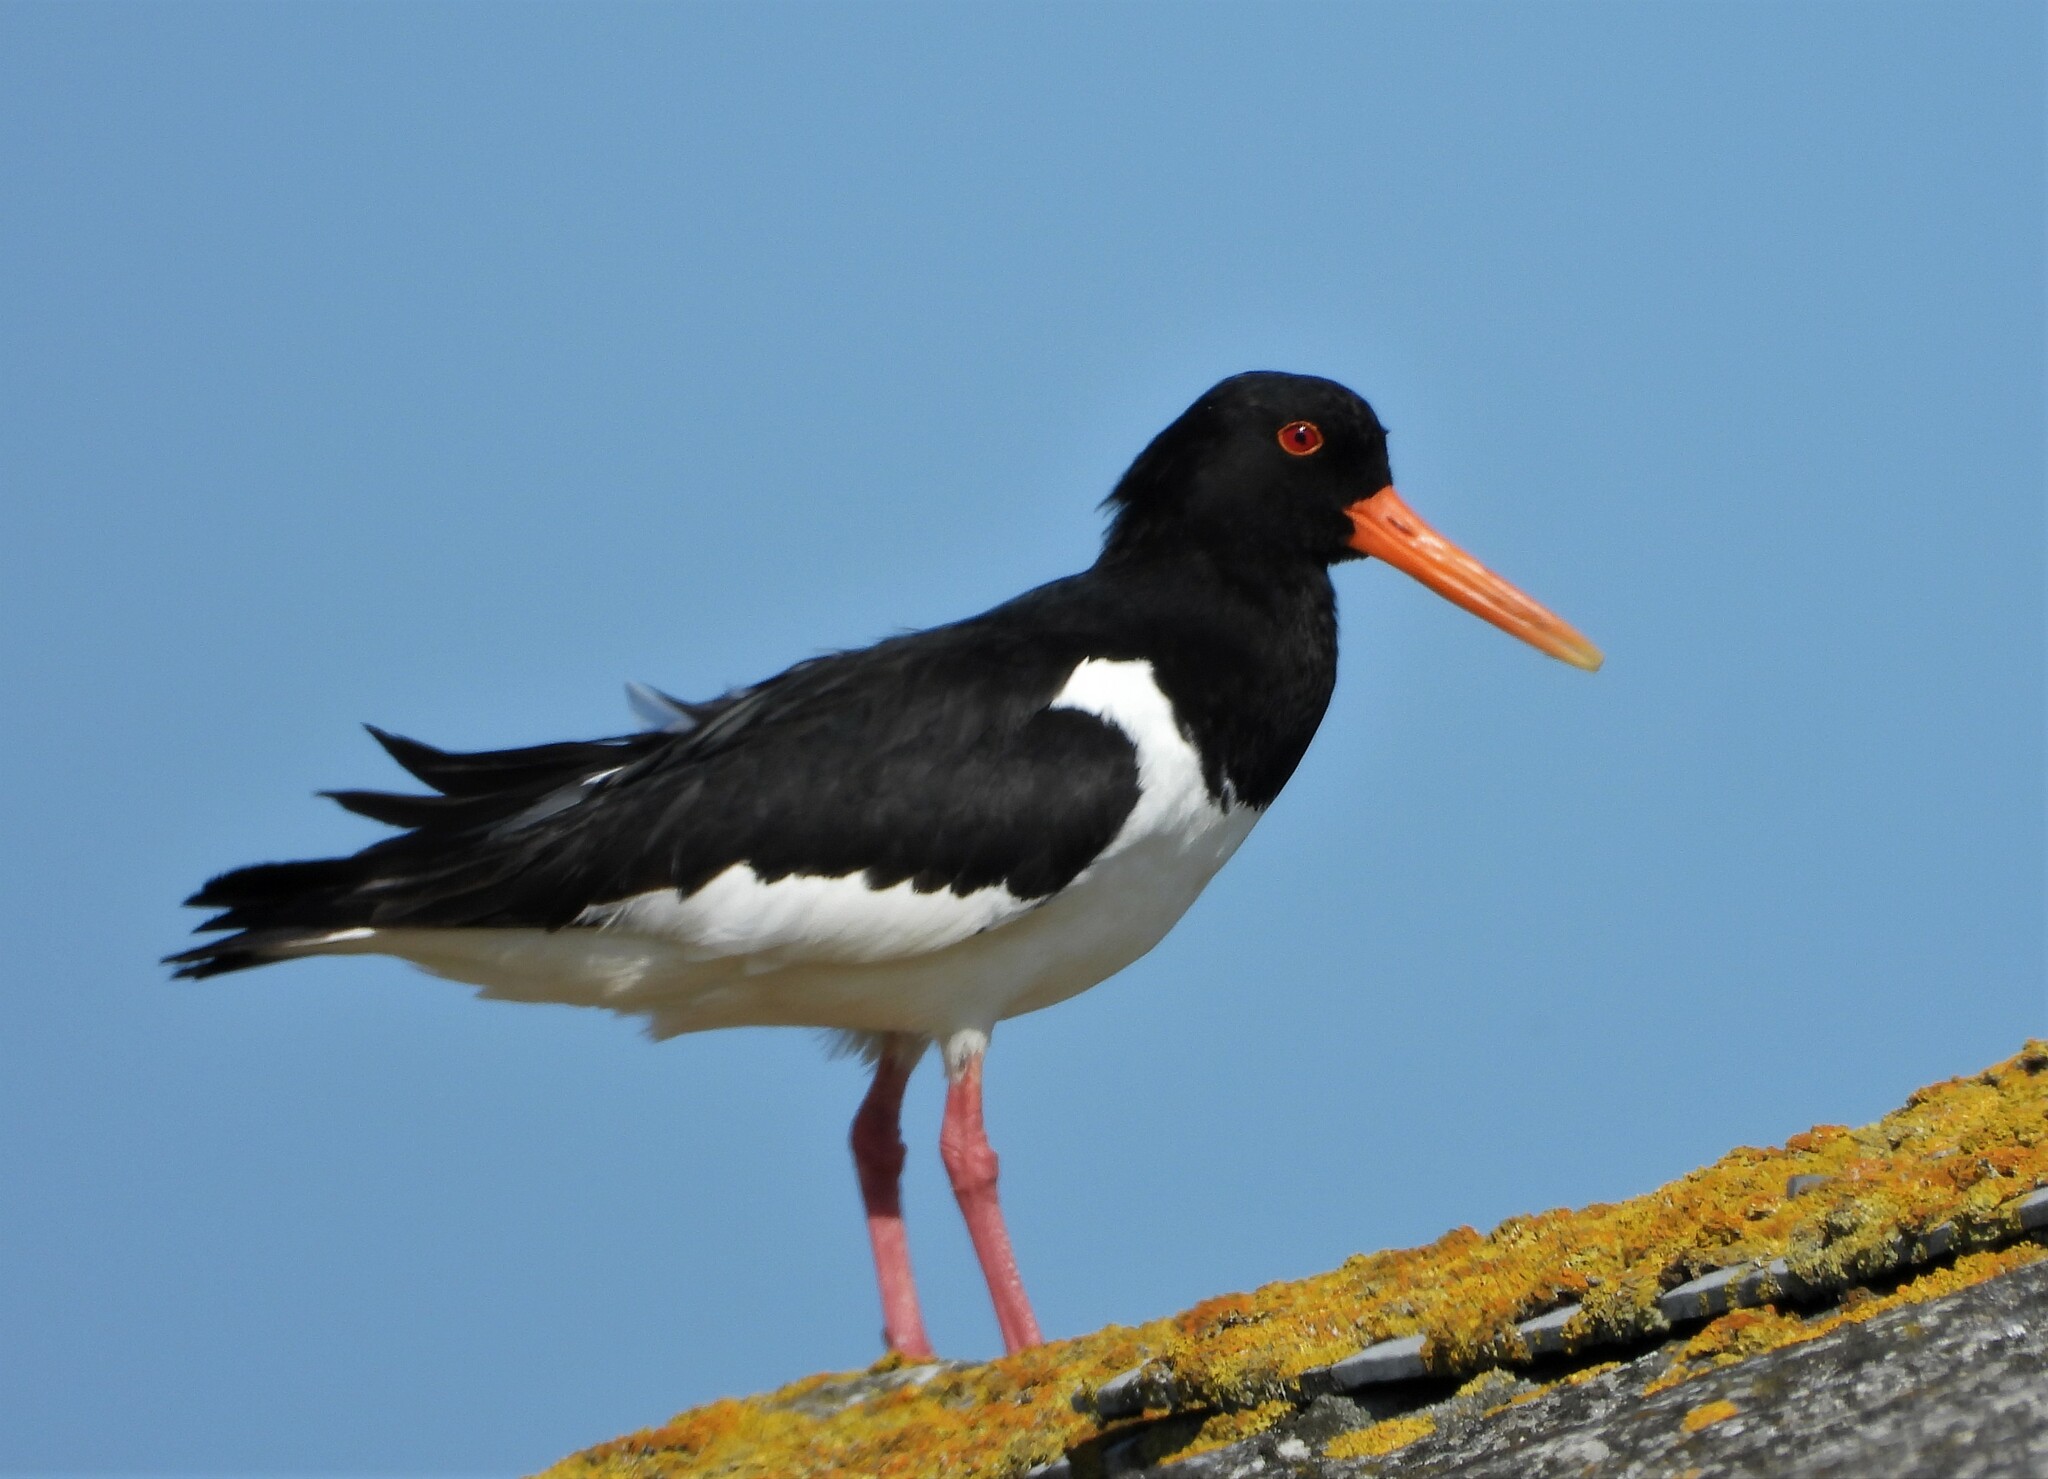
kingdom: Animalia
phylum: Chordata
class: Aves
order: Charadriiformes
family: Haematopodidae
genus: Haematopus
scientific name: Haematopus ostralegus
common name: Eurasian oystercatcher
